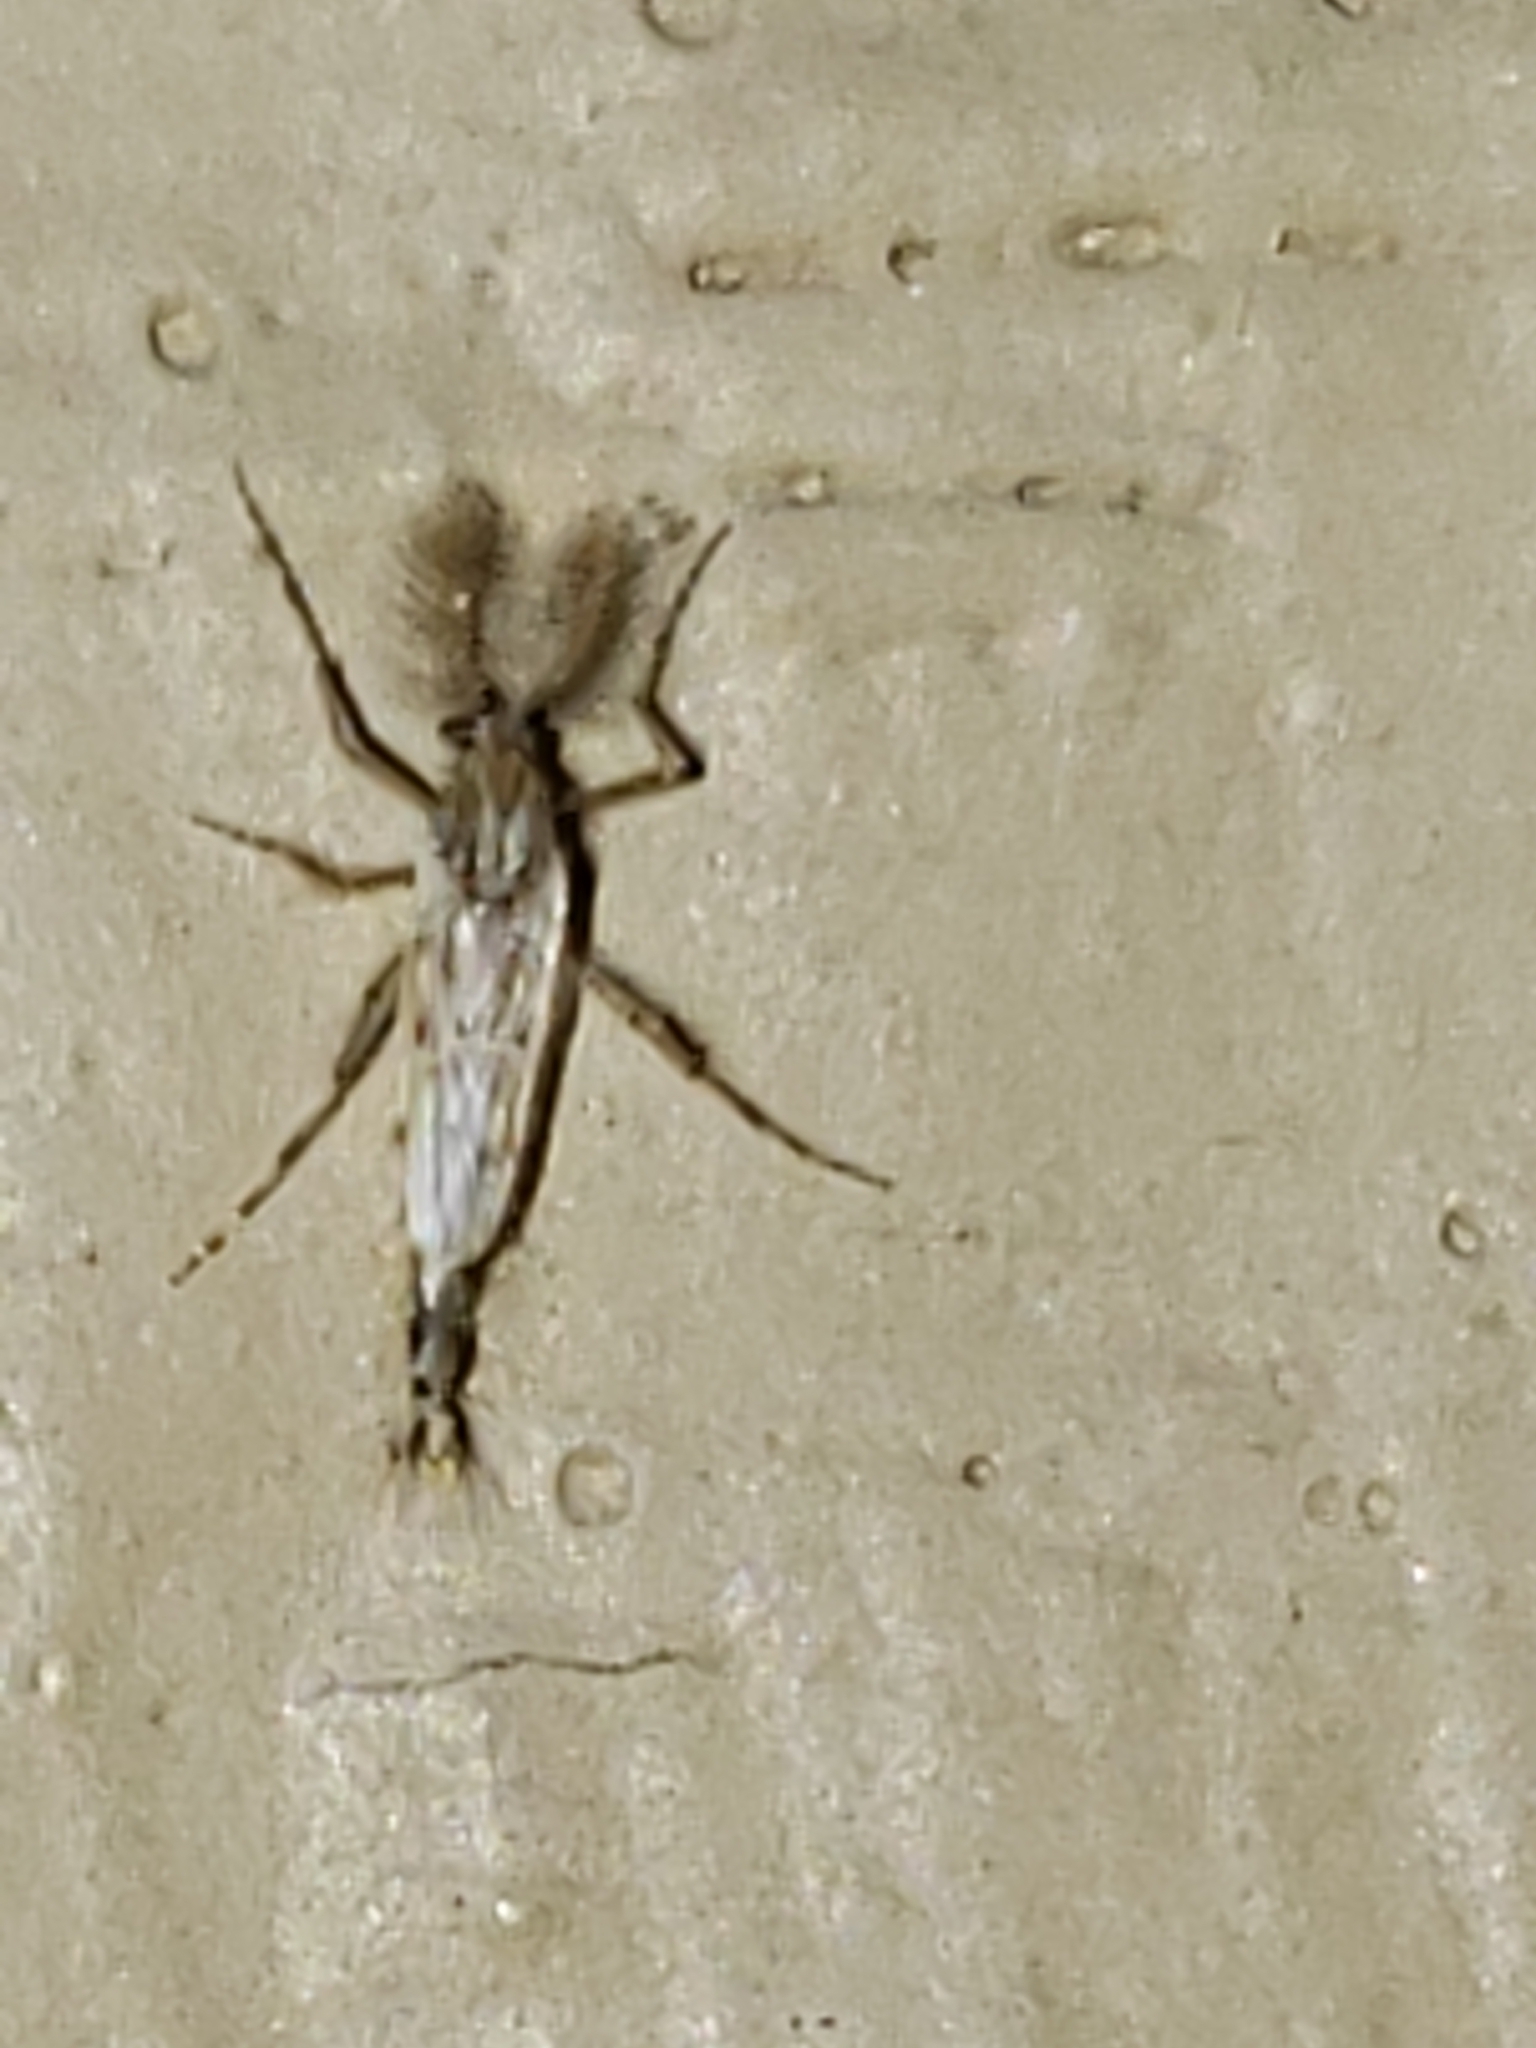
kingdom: Animalia
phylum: Arthropoda
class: Insecta
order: Diptera
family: Chaoboridae
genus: Chaoborus
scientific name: Chaoborus punctipennis
